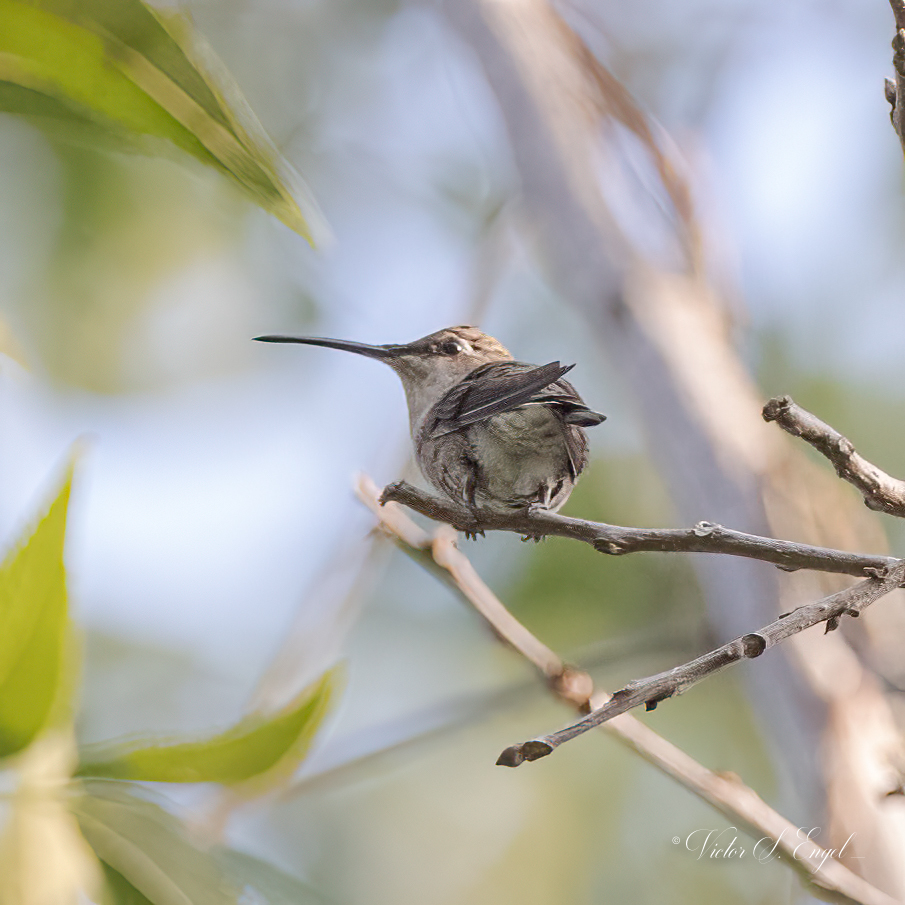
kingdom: Animalia
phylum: Chordata
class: Aves
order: Apodiformes
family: Trochilidae
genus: Archilochus
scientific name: Archilochus alexandri
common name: Black-chinned hummingbird
